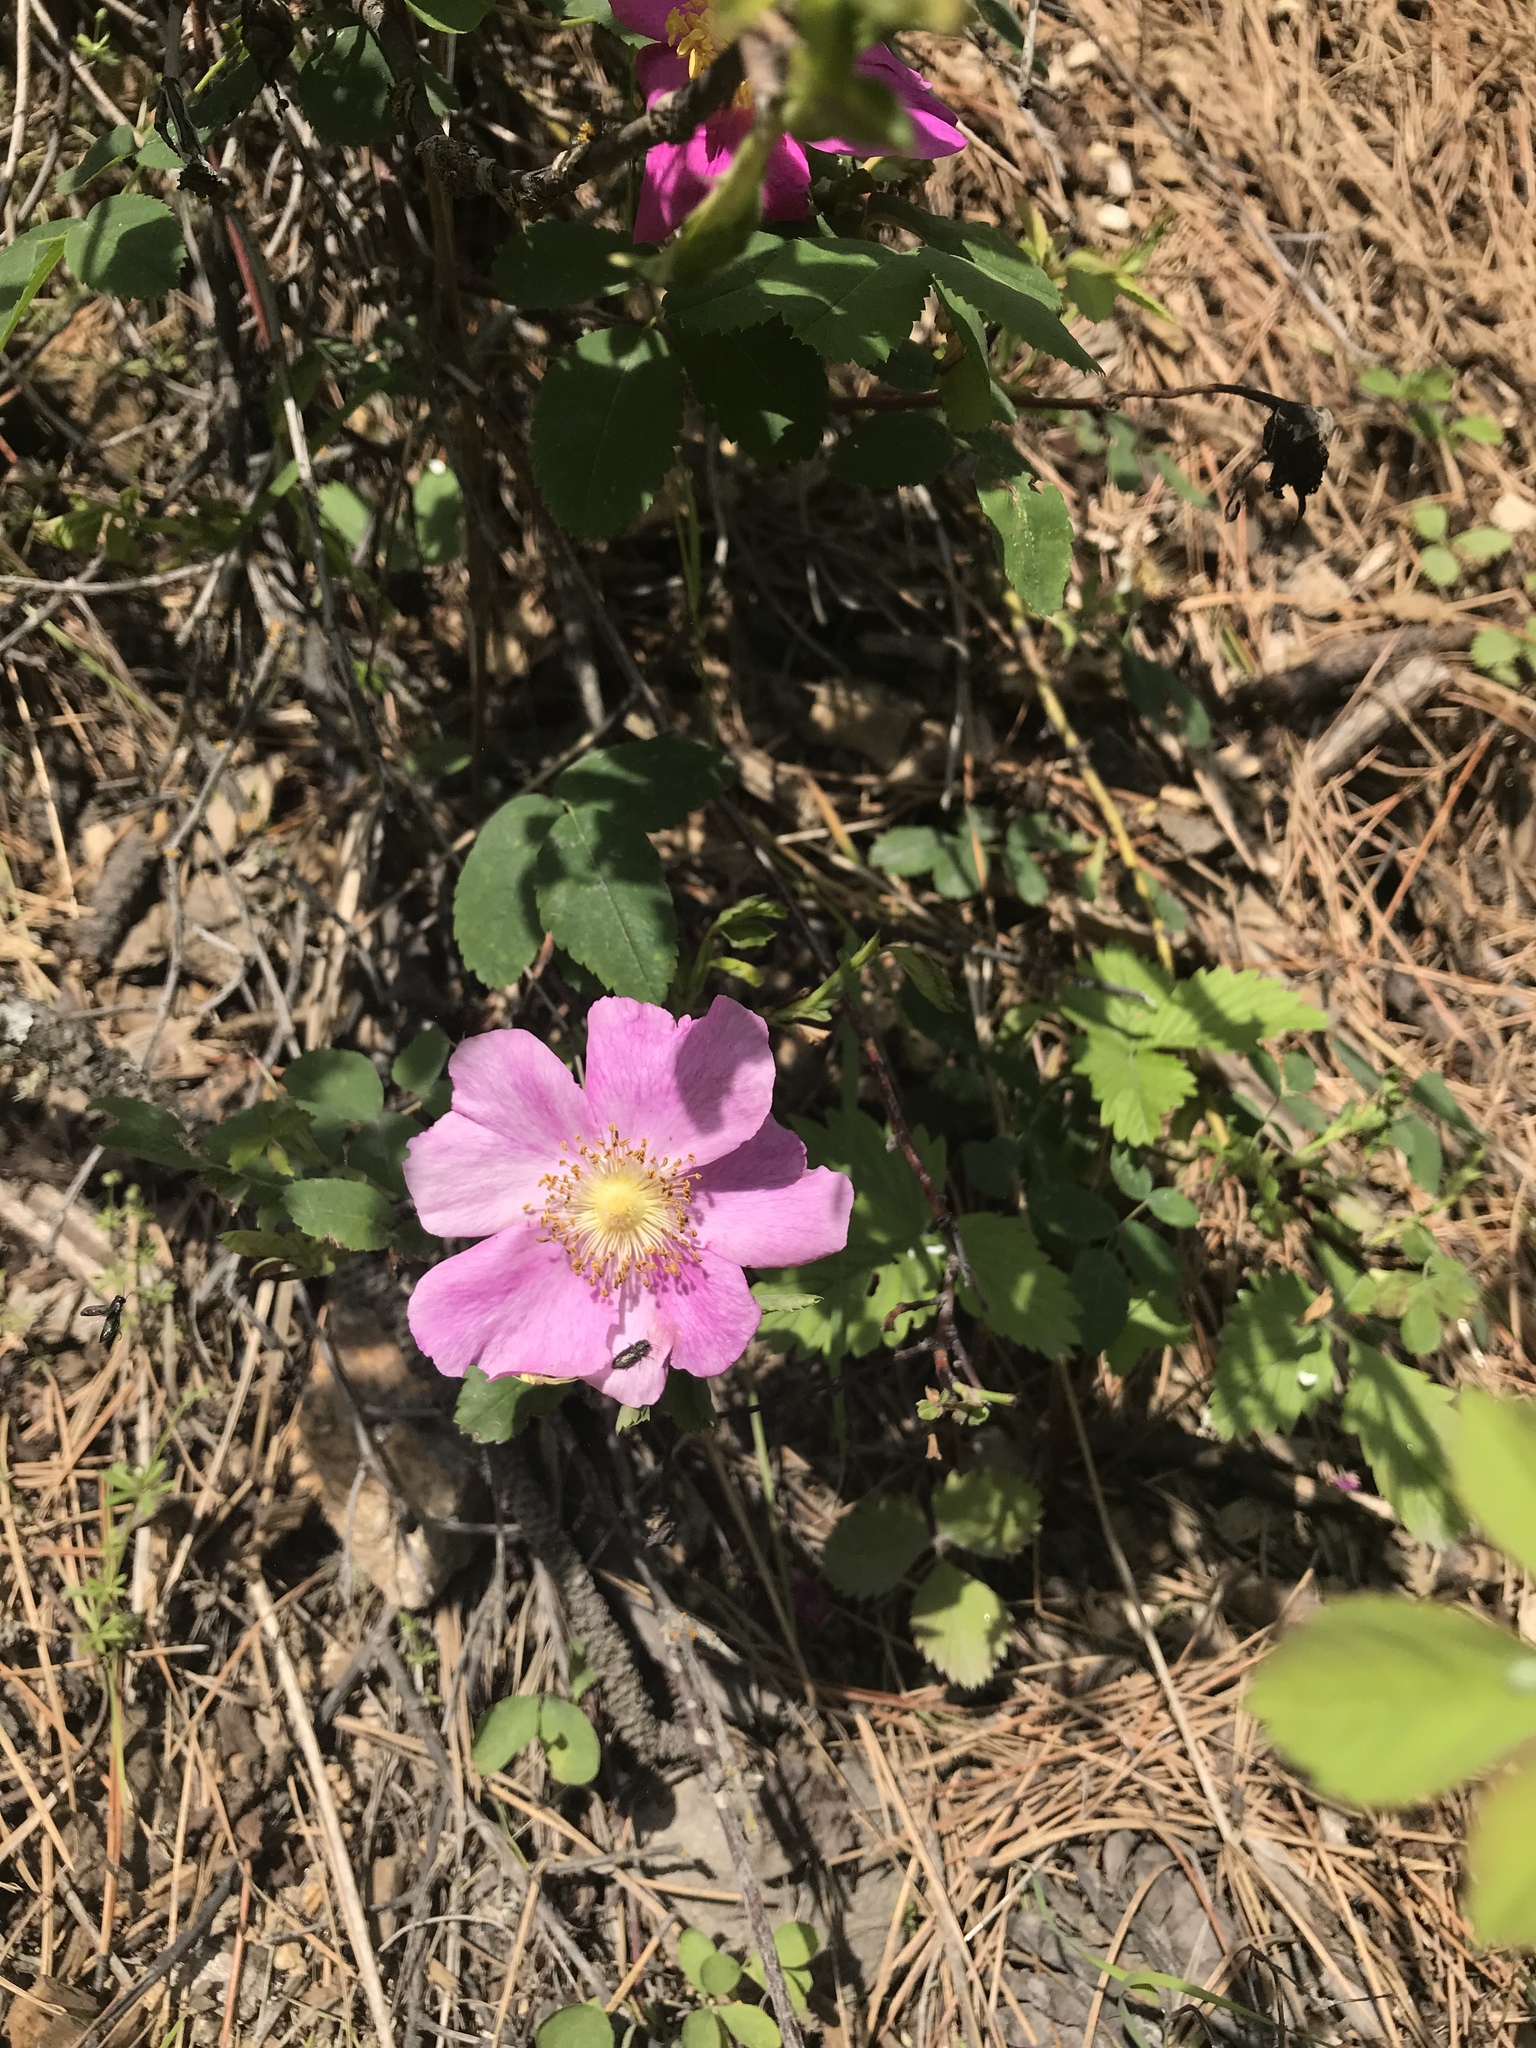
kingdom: Plantae
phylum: Tracheophyta
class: Magnoliopsida
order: Rosales
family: Rosaceae
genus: Rosa
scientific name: Rosa nutkana
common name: Nootka rose
